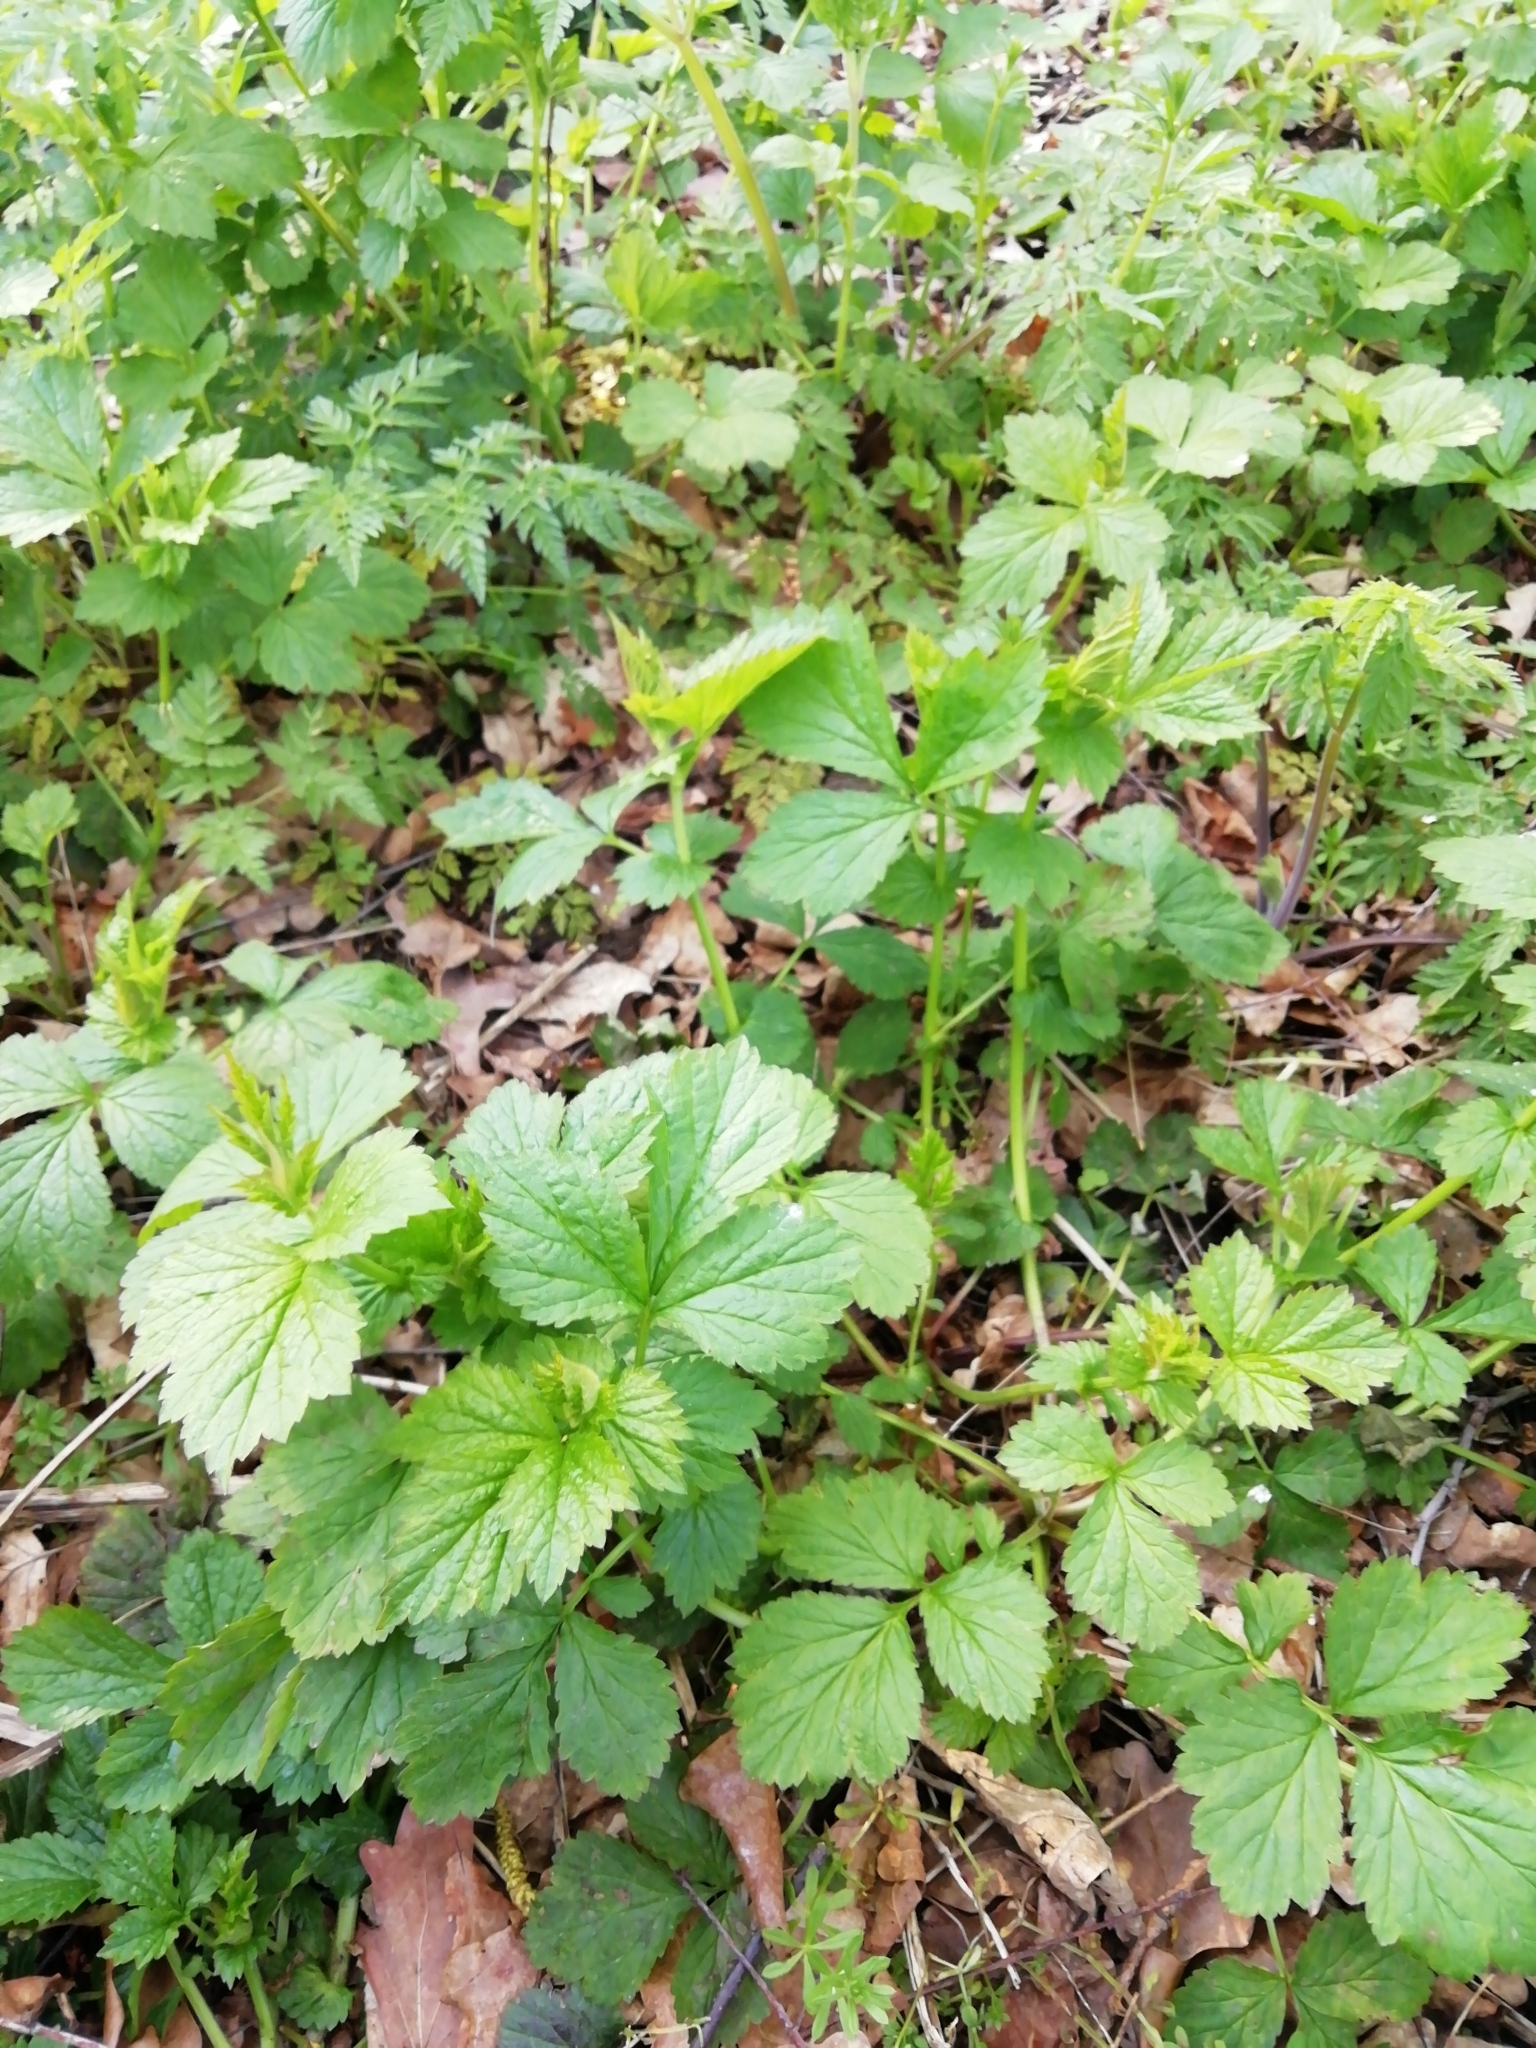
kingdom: Plantae
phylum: Tracheophyta
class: Magnoliopsida
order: Rosales
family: Rosaceae
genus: Geum
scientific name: Geum urbanum
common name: Wood avens
